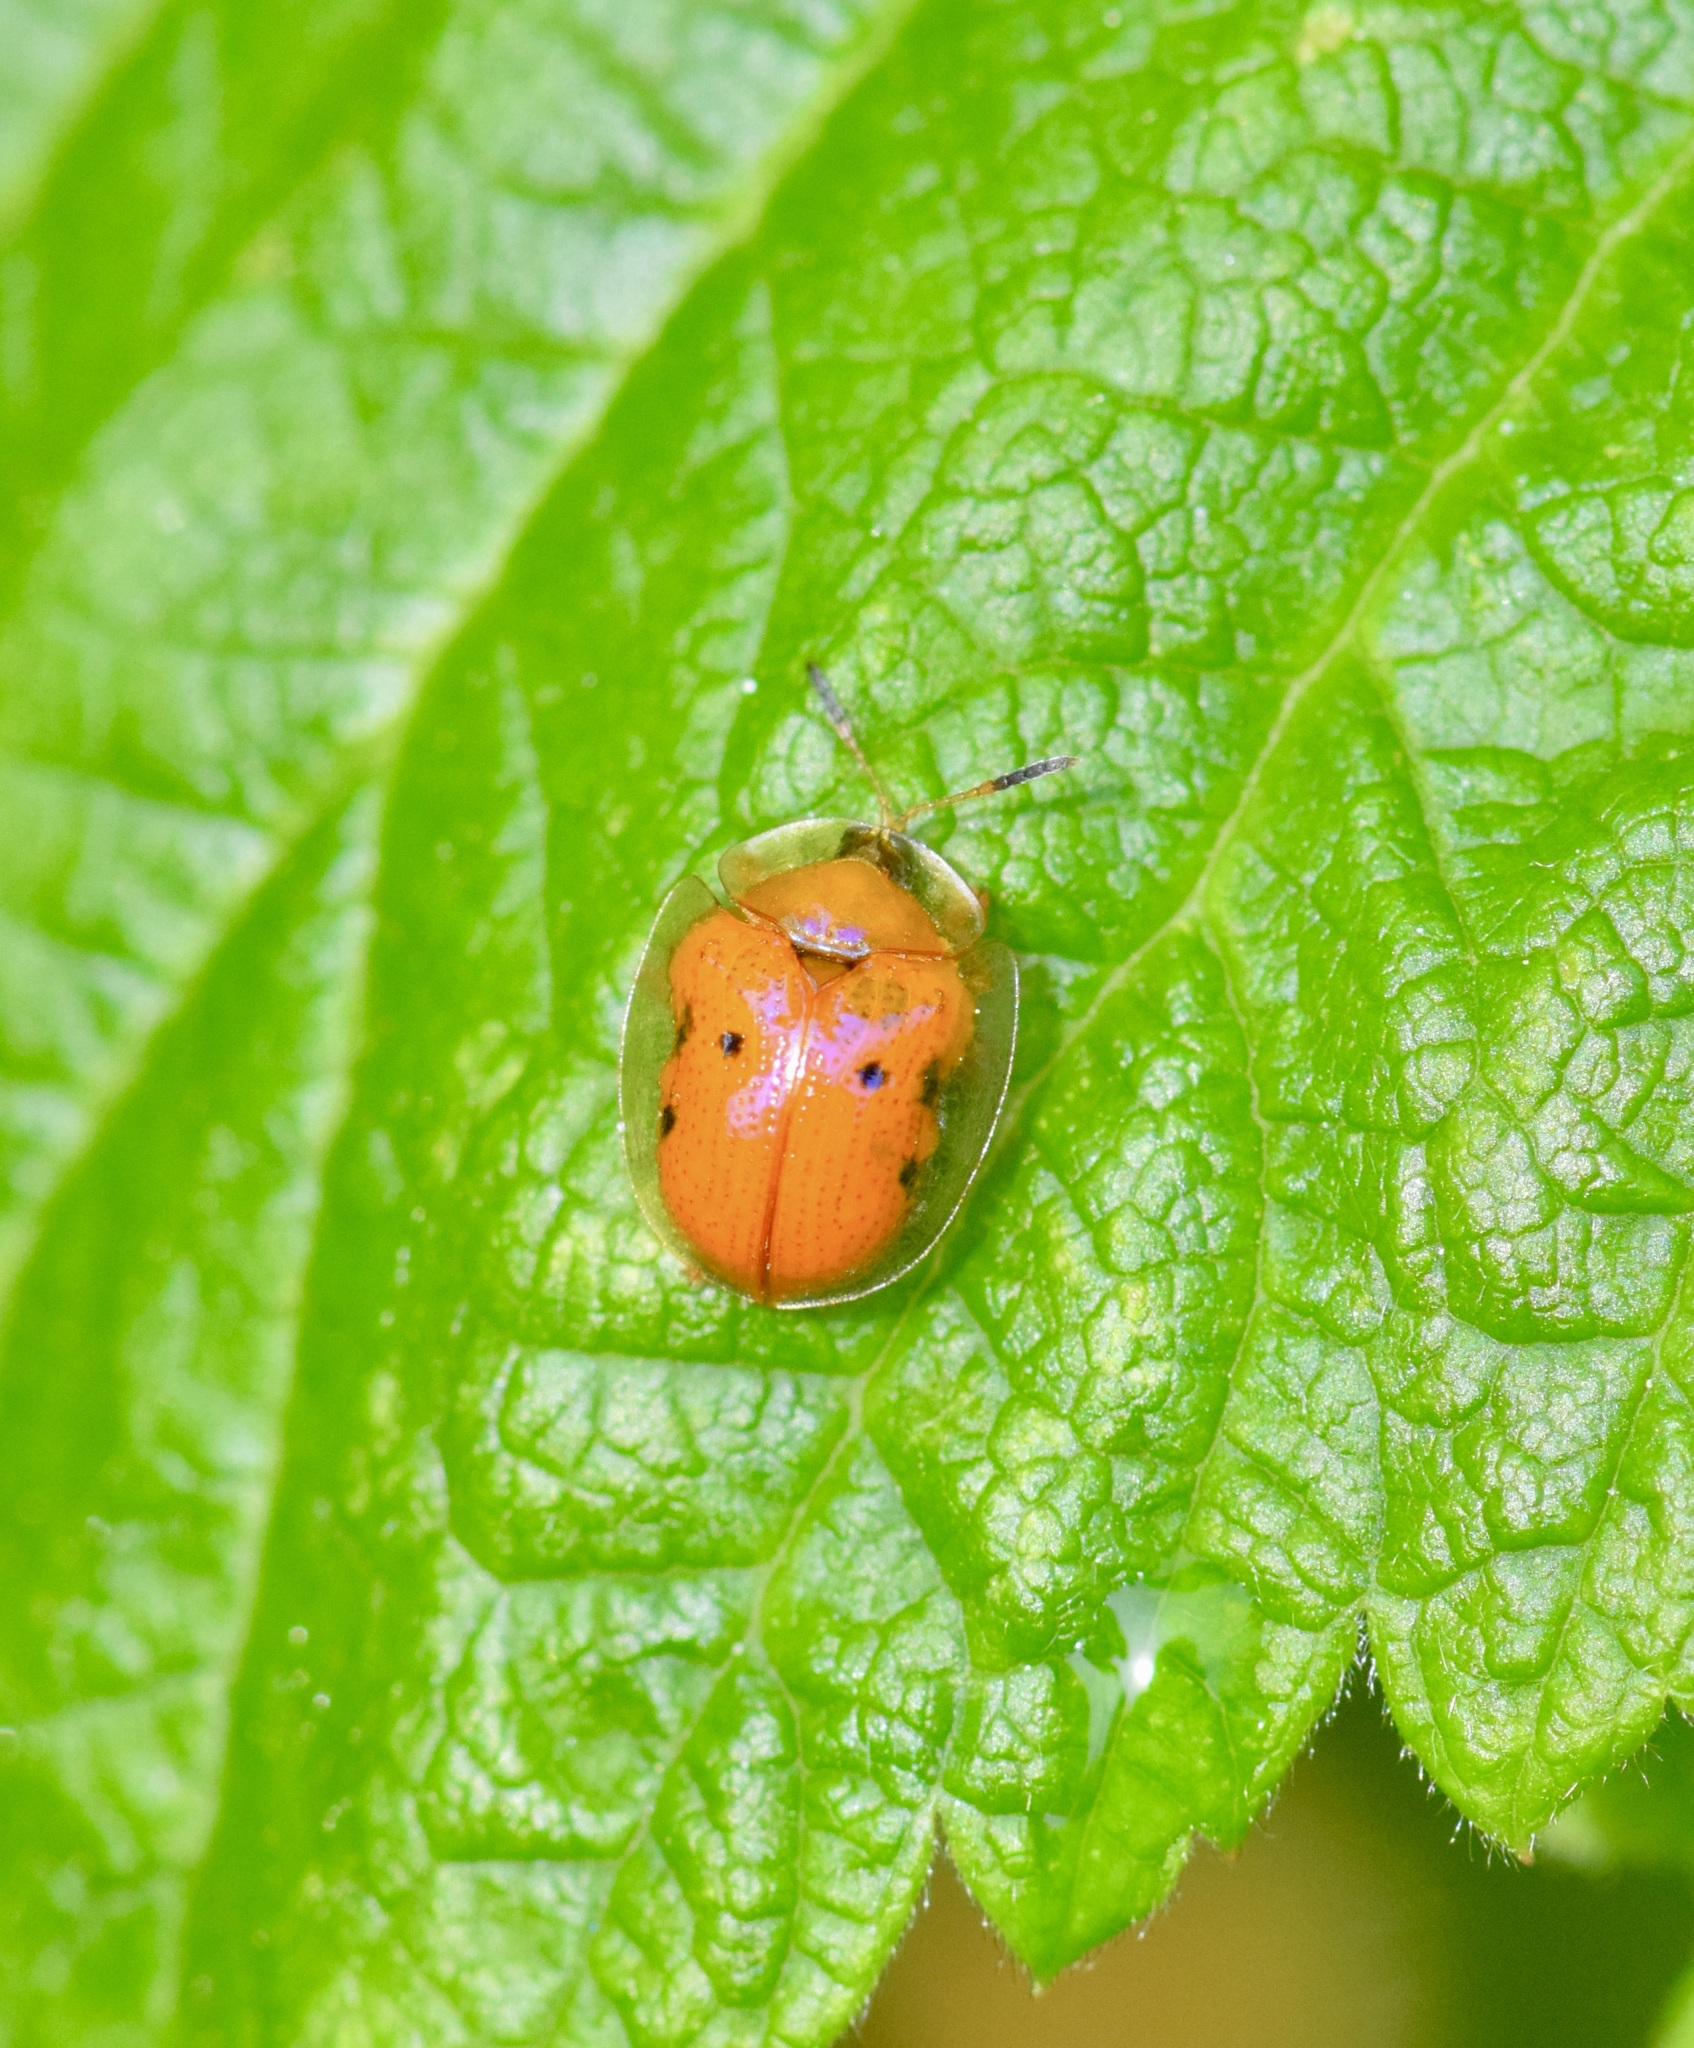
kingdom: Animalia
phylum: Arthropoda
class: Insecta
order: Coleoptera
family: Chrysomelidae
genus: Charidotella
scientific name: Charidotella sexpunctata
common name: Golden tortoise beetle
